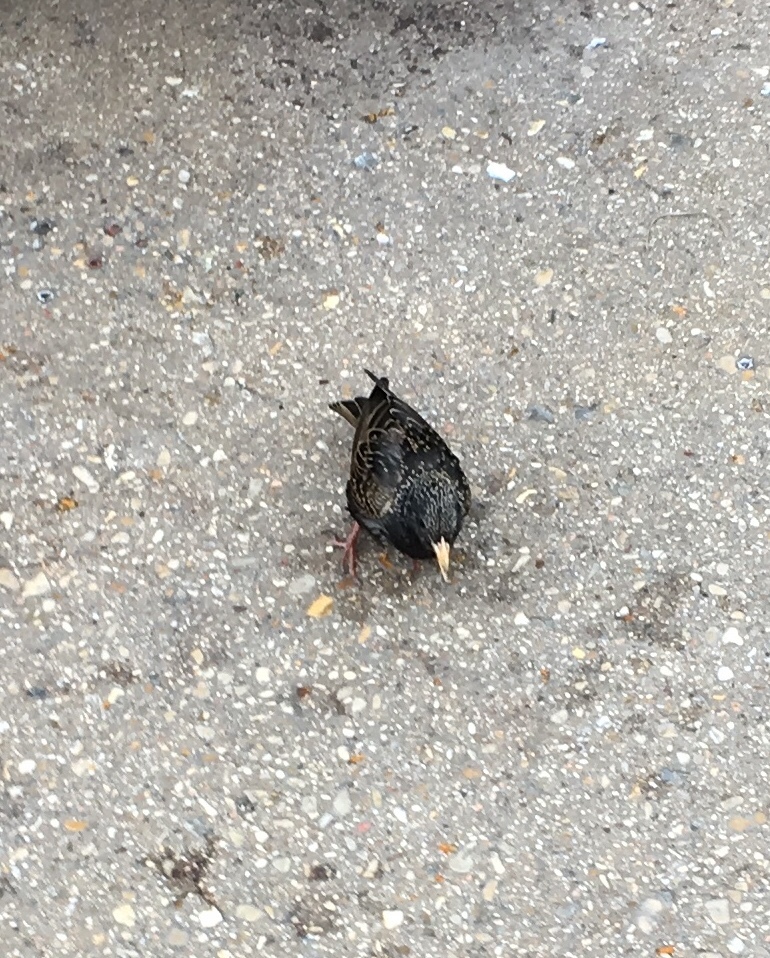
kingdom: Animalia
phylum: Chordata
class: Aves
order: Passeriformes
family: Sturnidae
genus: Sturnus
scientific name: Sturnus vulgaris
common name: Common starling
